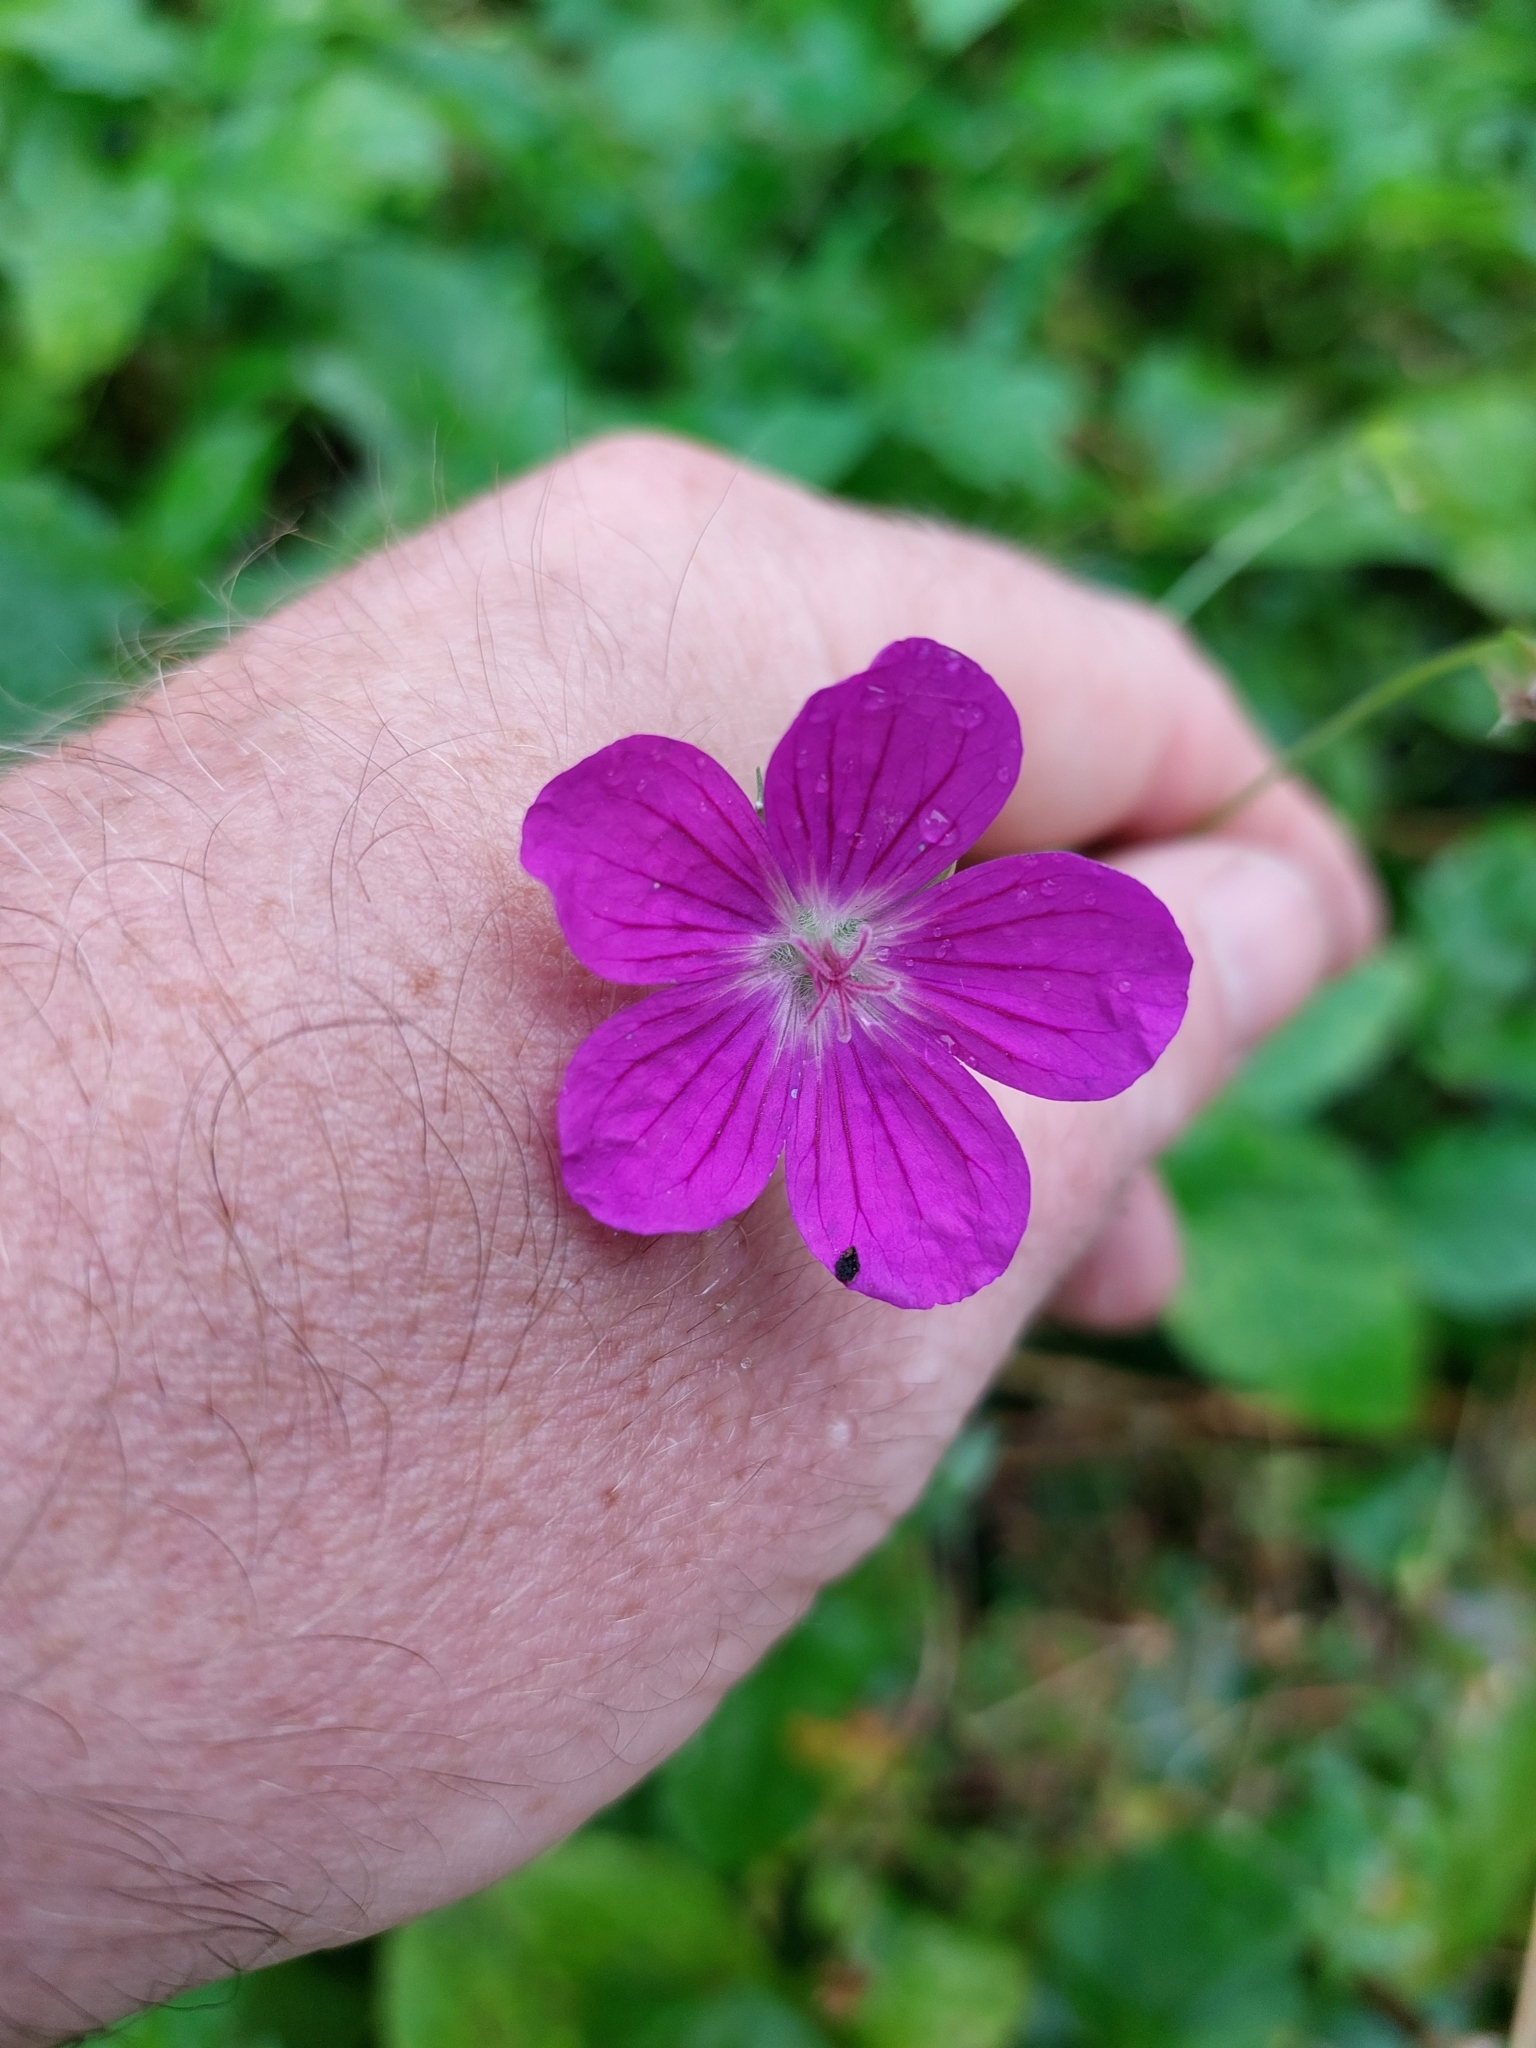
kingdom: Plantae
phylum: Tracheophyta
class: Magnoliopsida
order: Geraniales
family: Geraniaceae
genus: Geranium
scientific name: Geranium palustre
